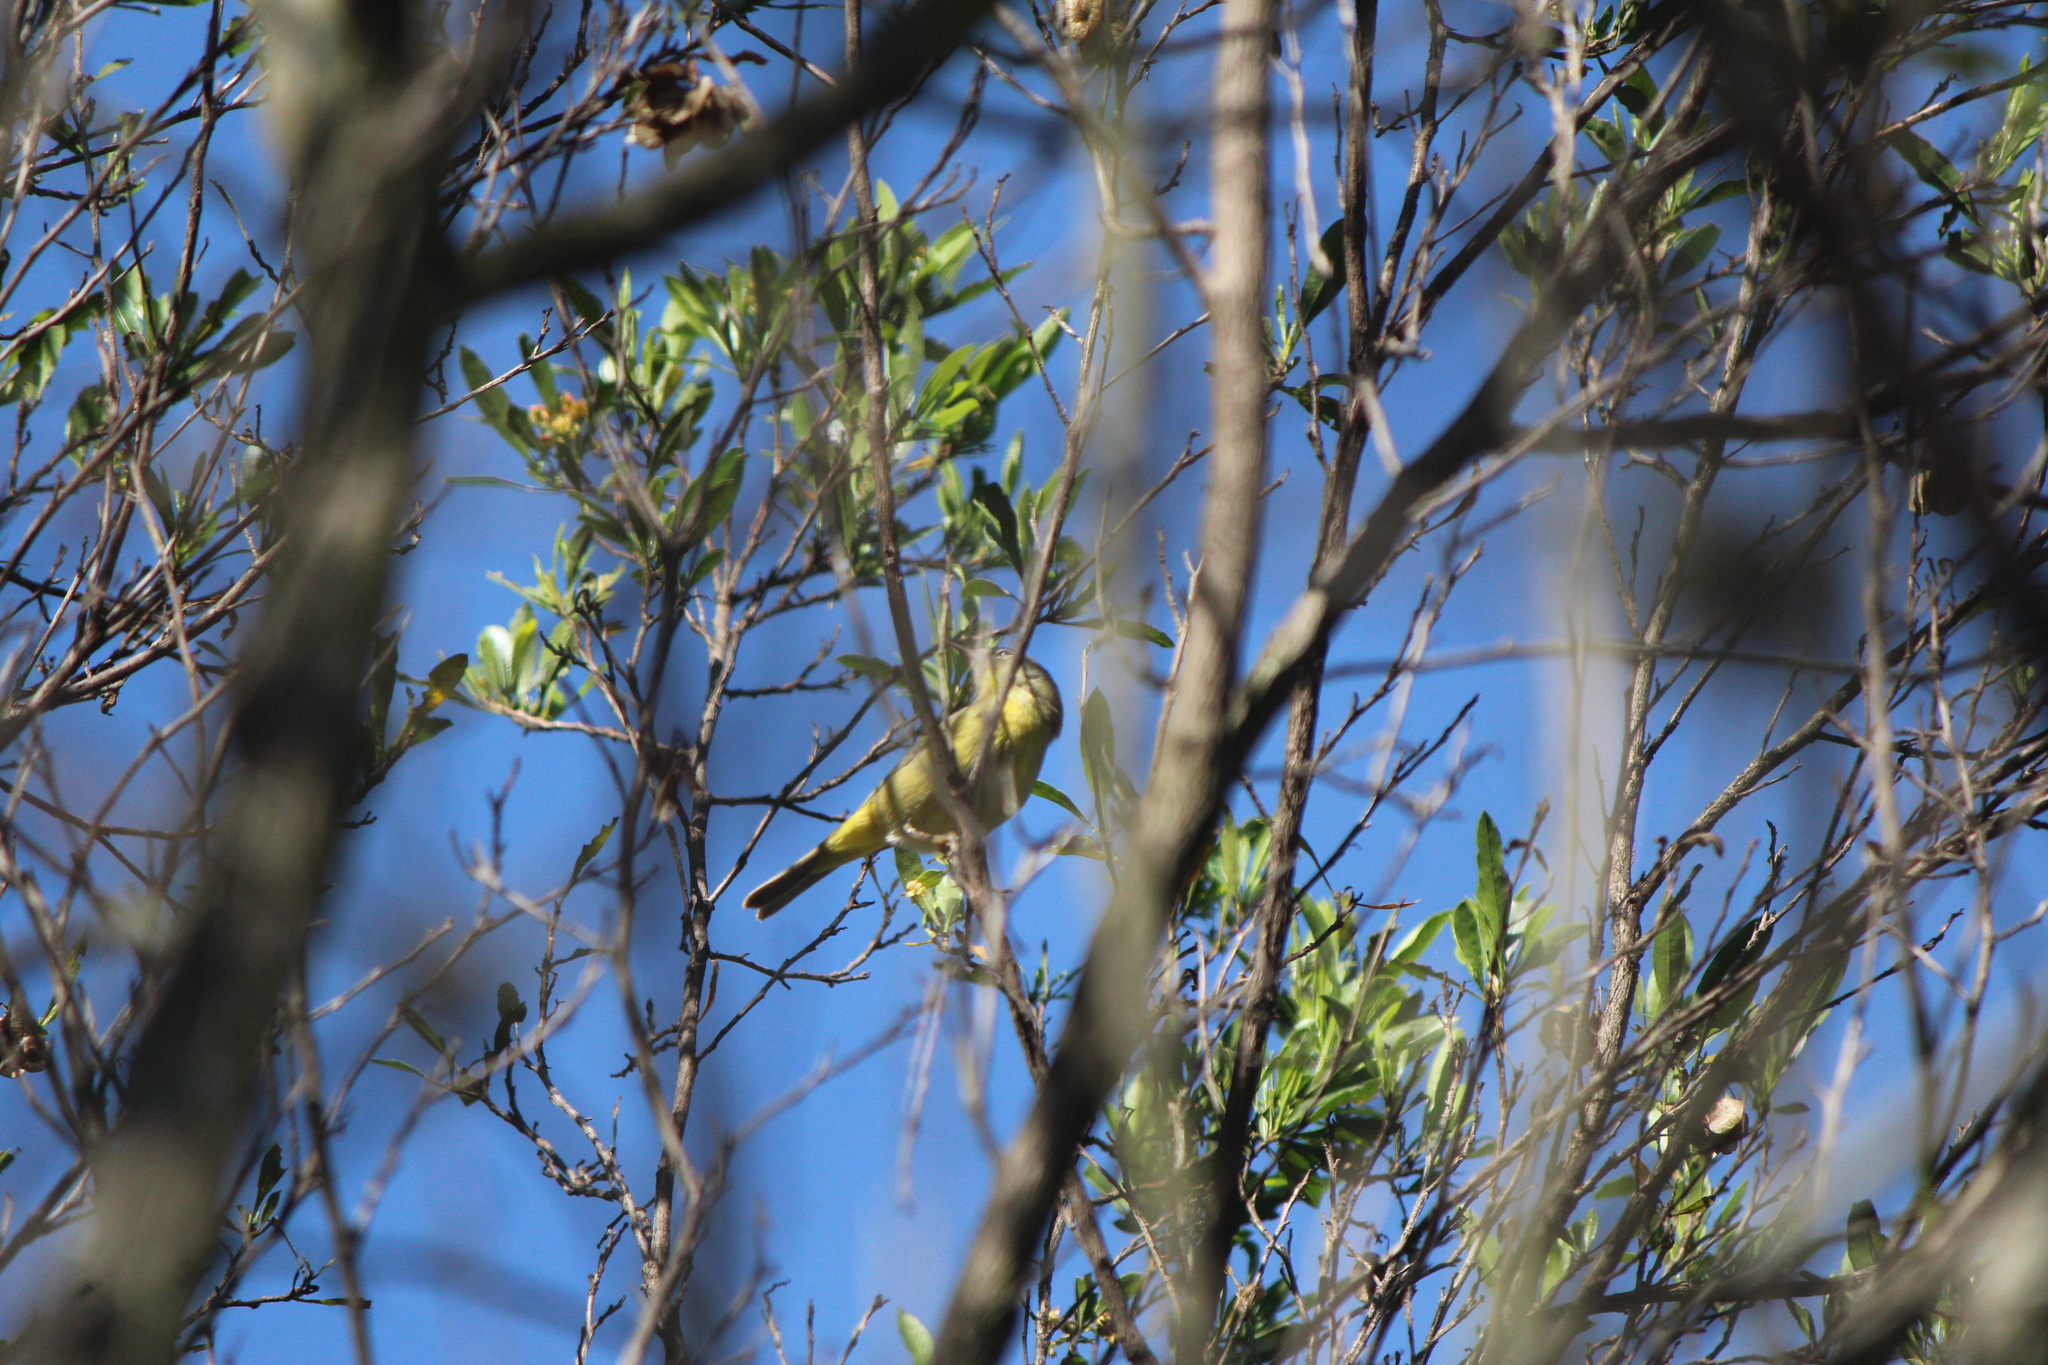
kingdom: Animalia
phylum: Chordata
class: Aves
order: Passeriformes
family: Parulidae
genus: Leiothlypis
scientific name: Leiothlypis celata
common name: Orange-crowned warbler
